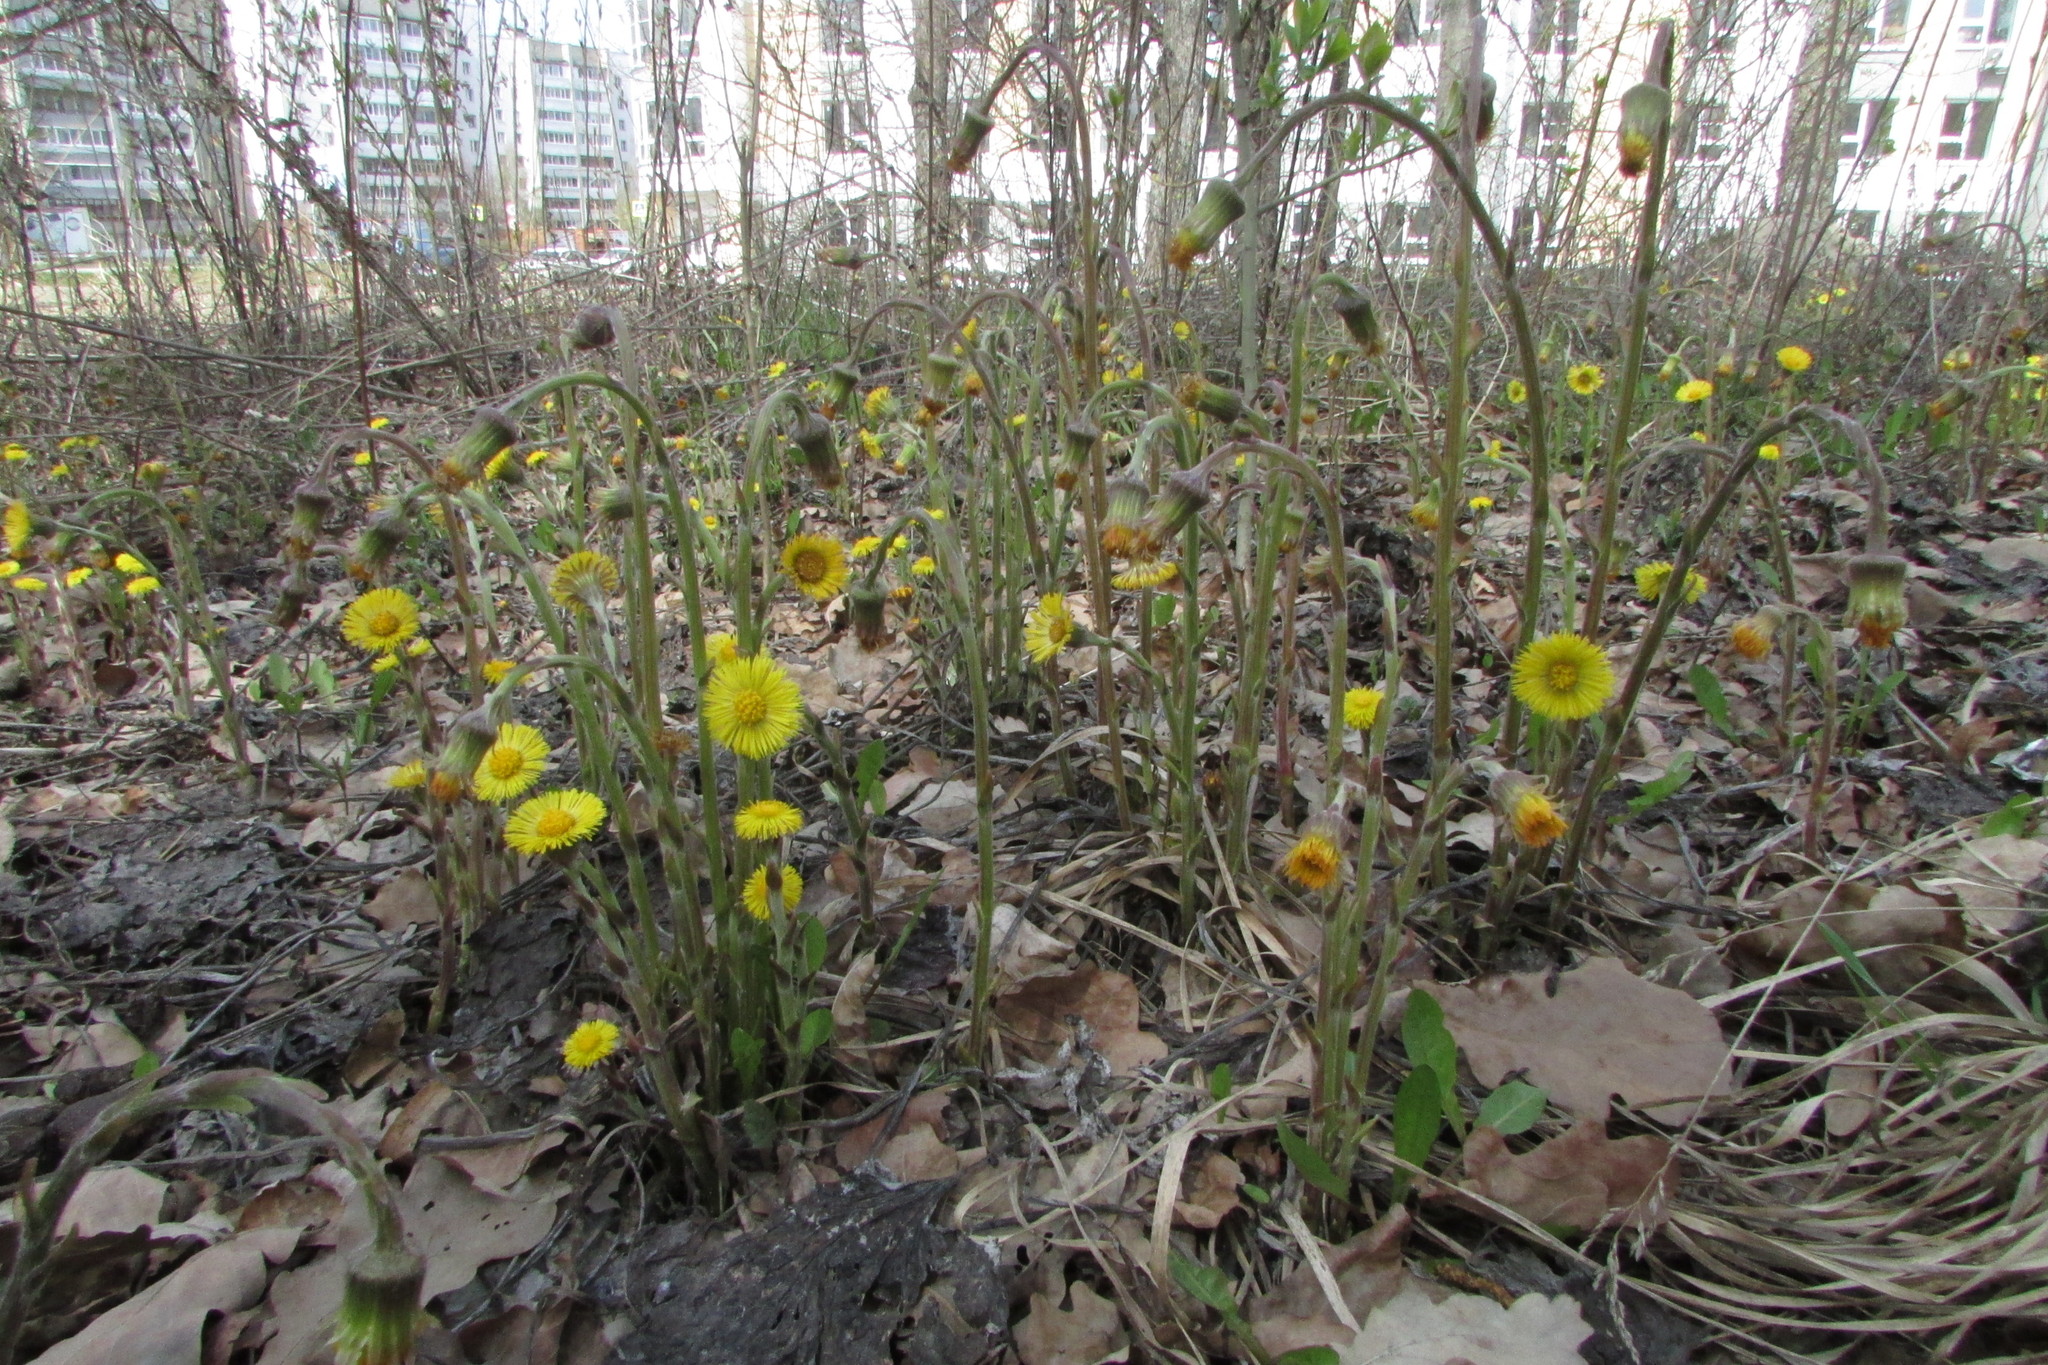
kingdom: Plantae
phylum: Tracheophyta
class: Magnoliopsida
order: Asterales
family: Asteraceae
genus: Tussilago
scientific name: Tussilago farfara
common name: Coltsfoot
